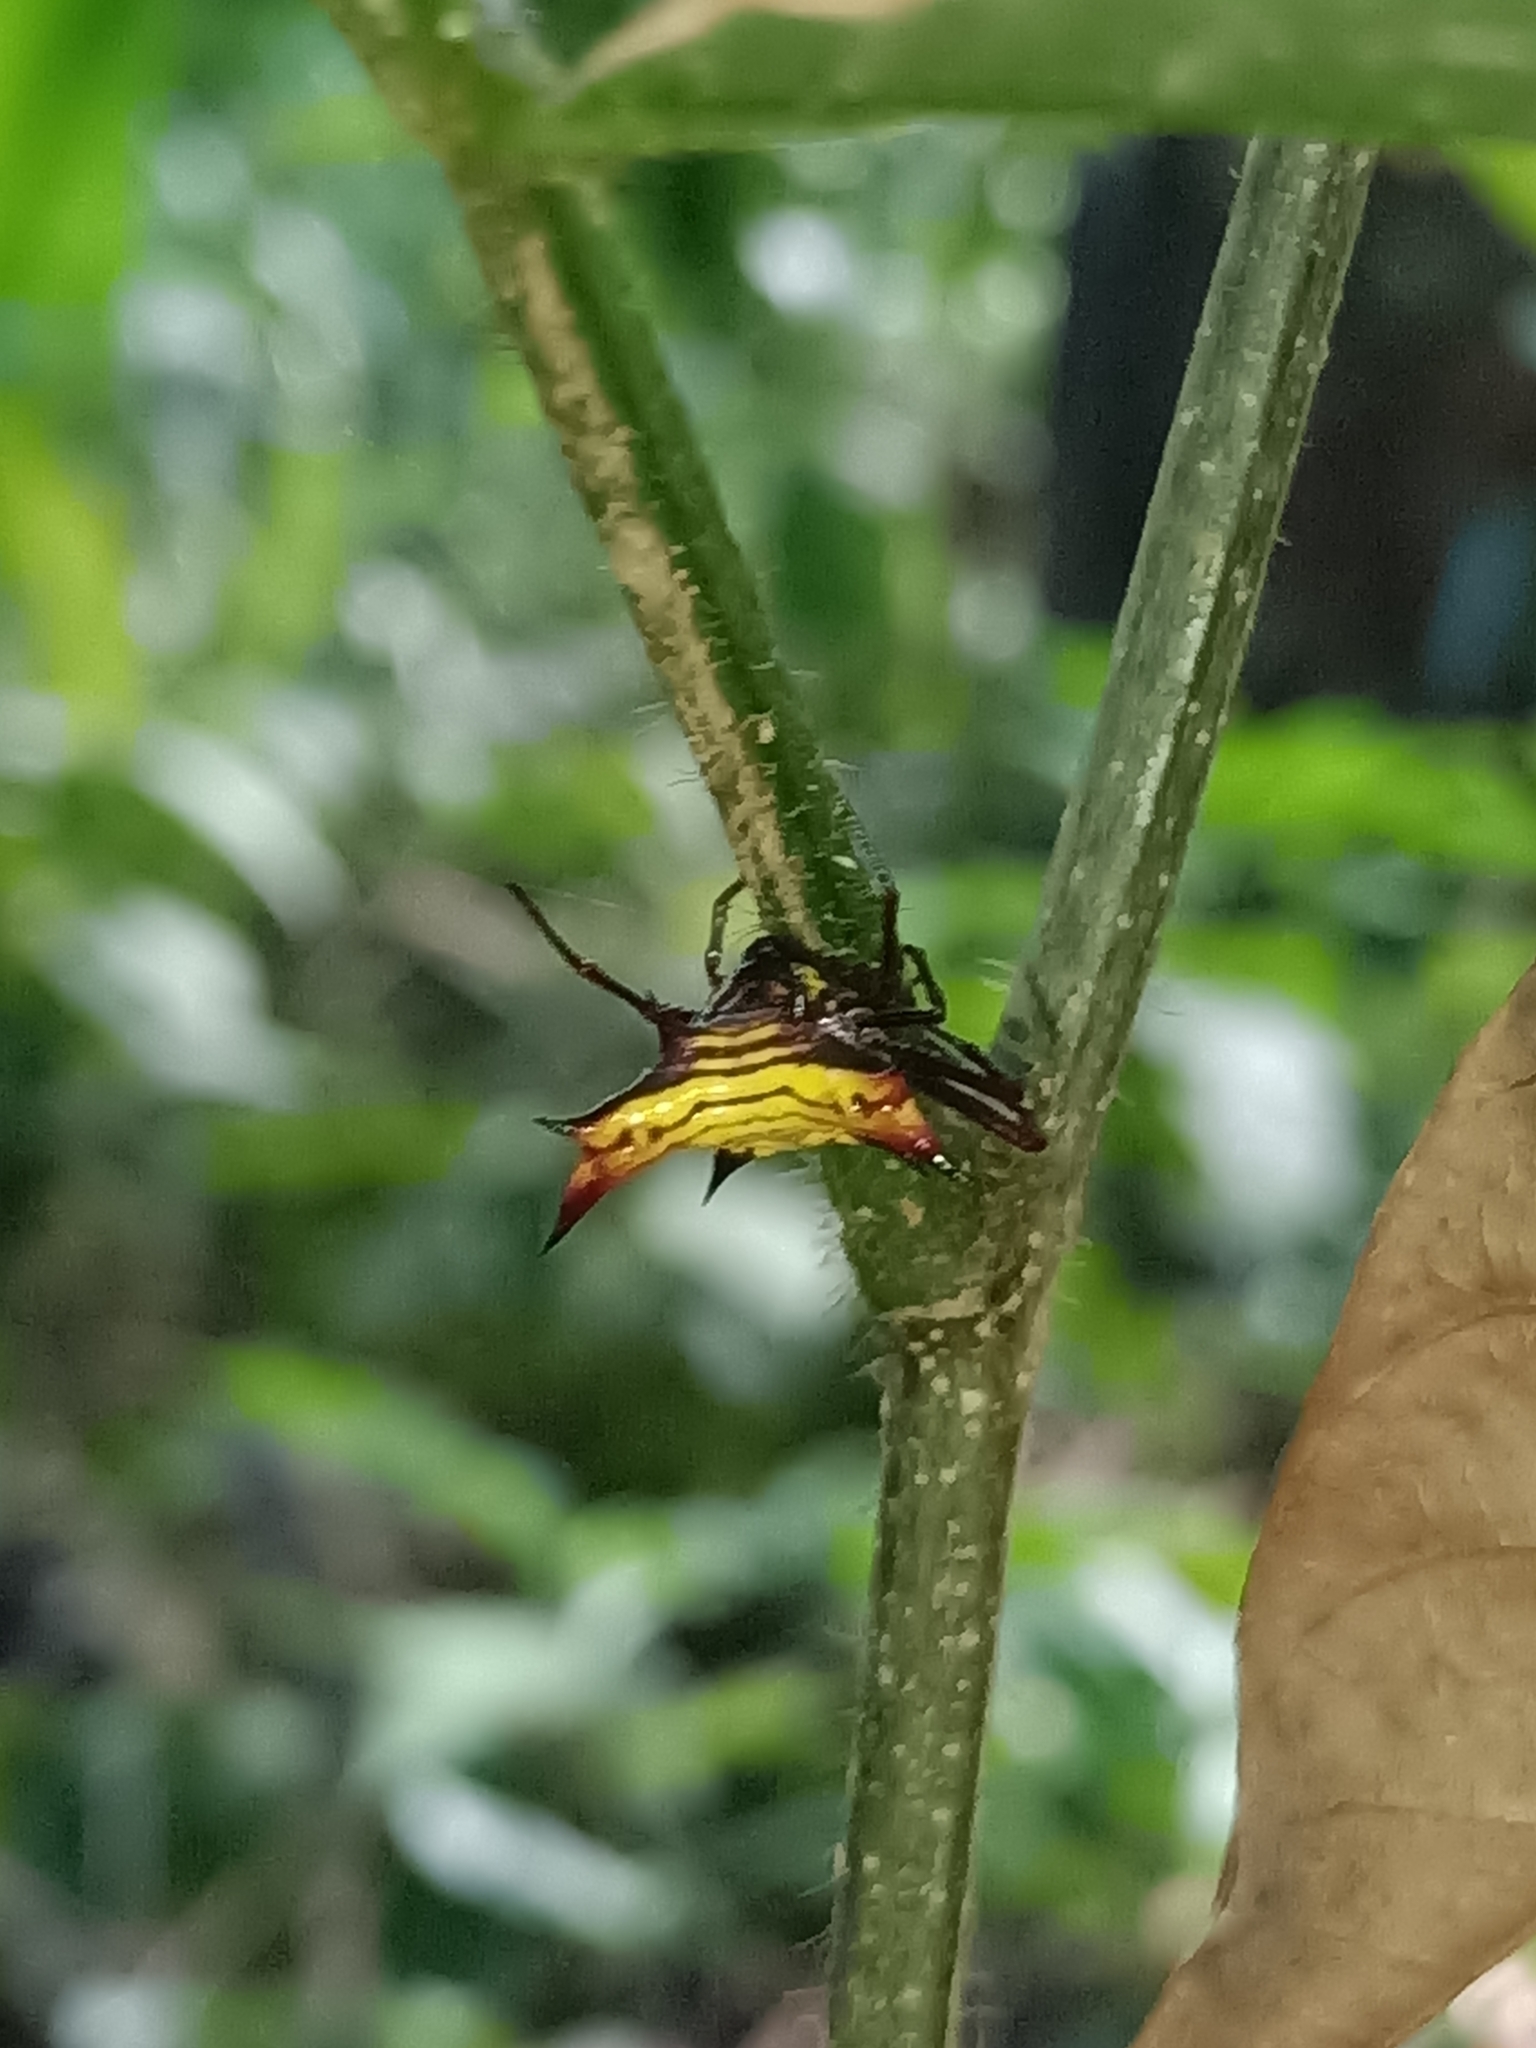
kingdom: Animalia
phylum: Arthropoda
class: Arachnida
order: Araneae
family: Araneidae
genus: Micrathena
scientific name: Micrathena fissispina
